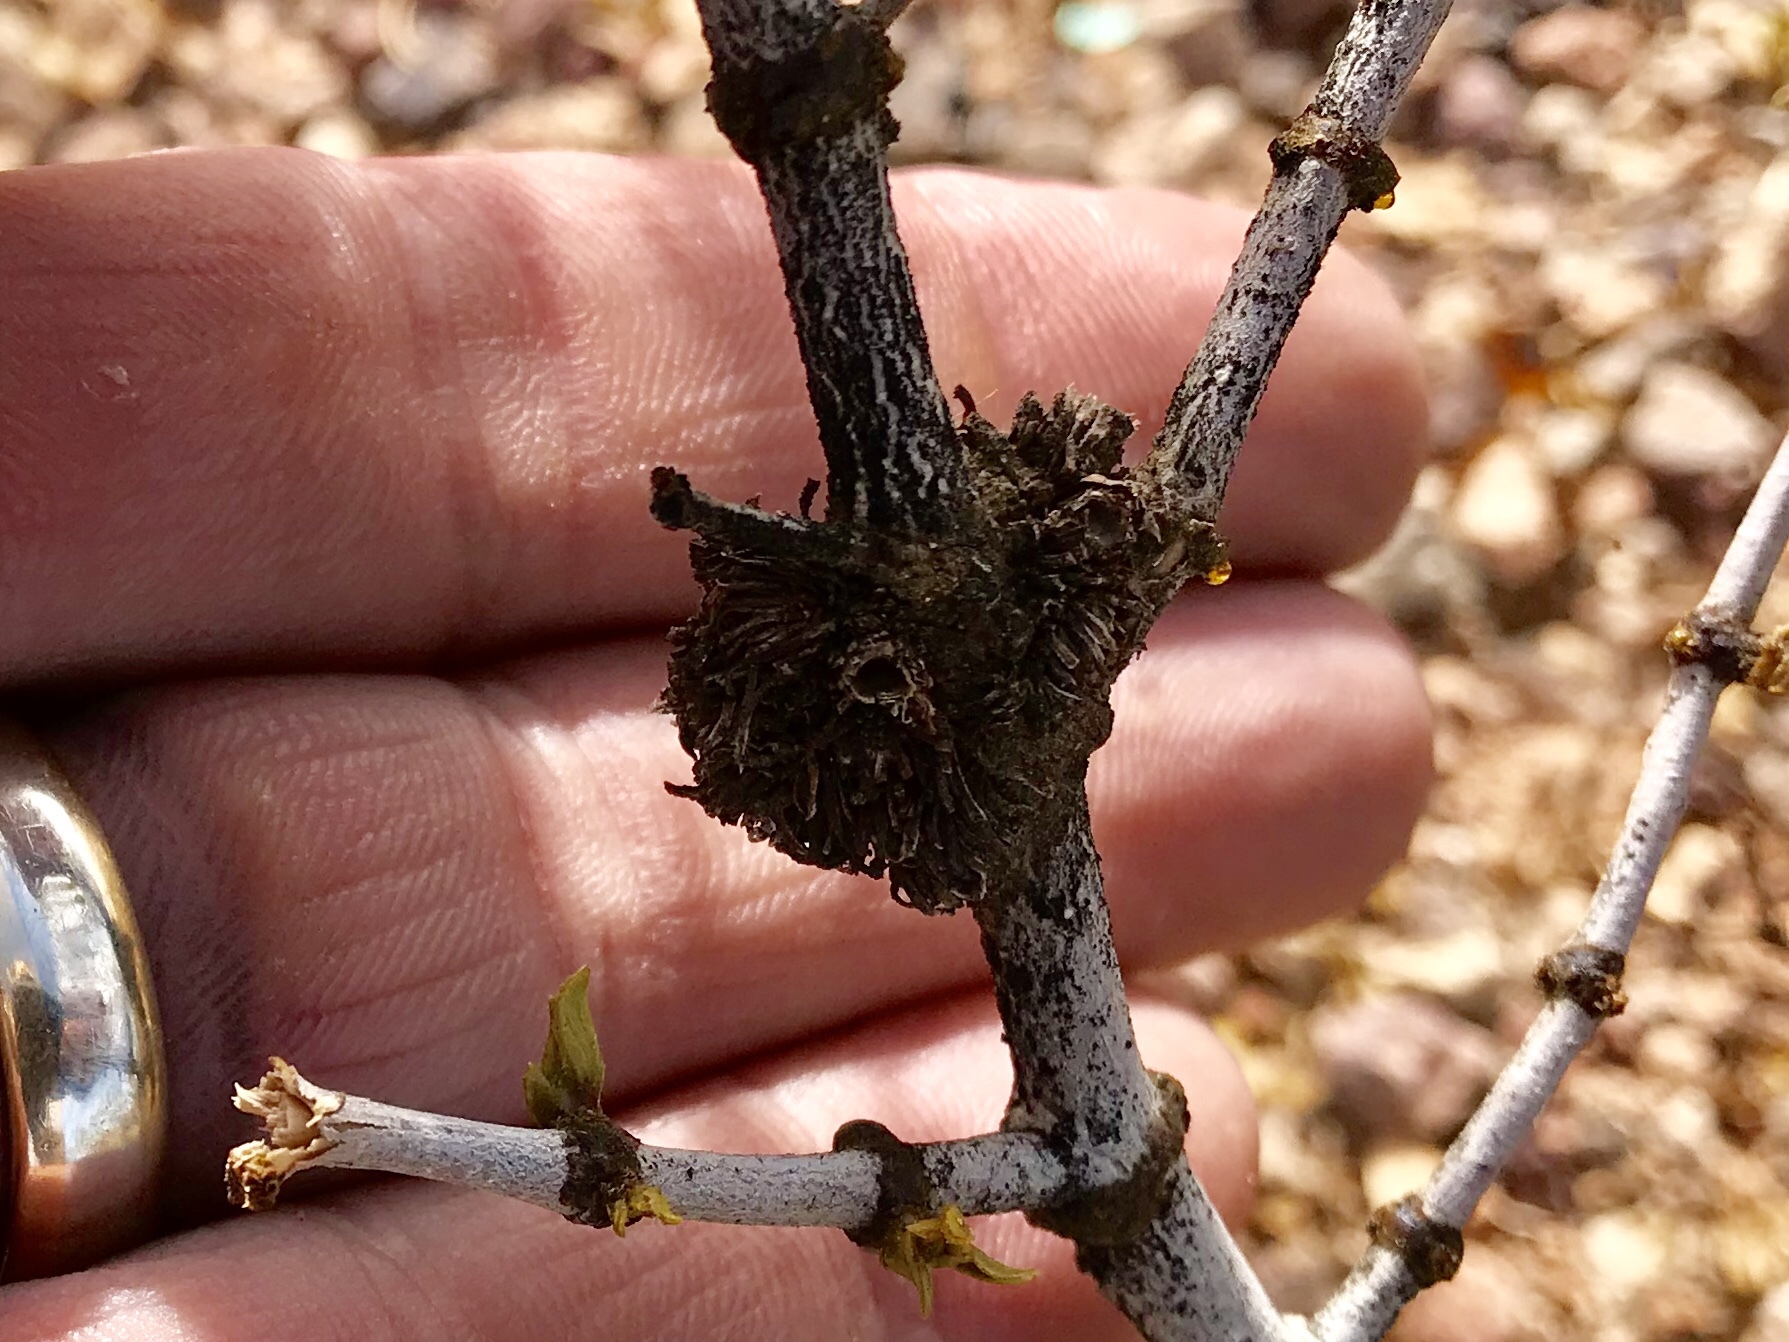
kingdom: Animalia
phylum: Arthropoda
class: Insecta
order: Diptera
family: Cecidomyiidae
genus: Asphondylia
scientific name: Asphondylia auripila
